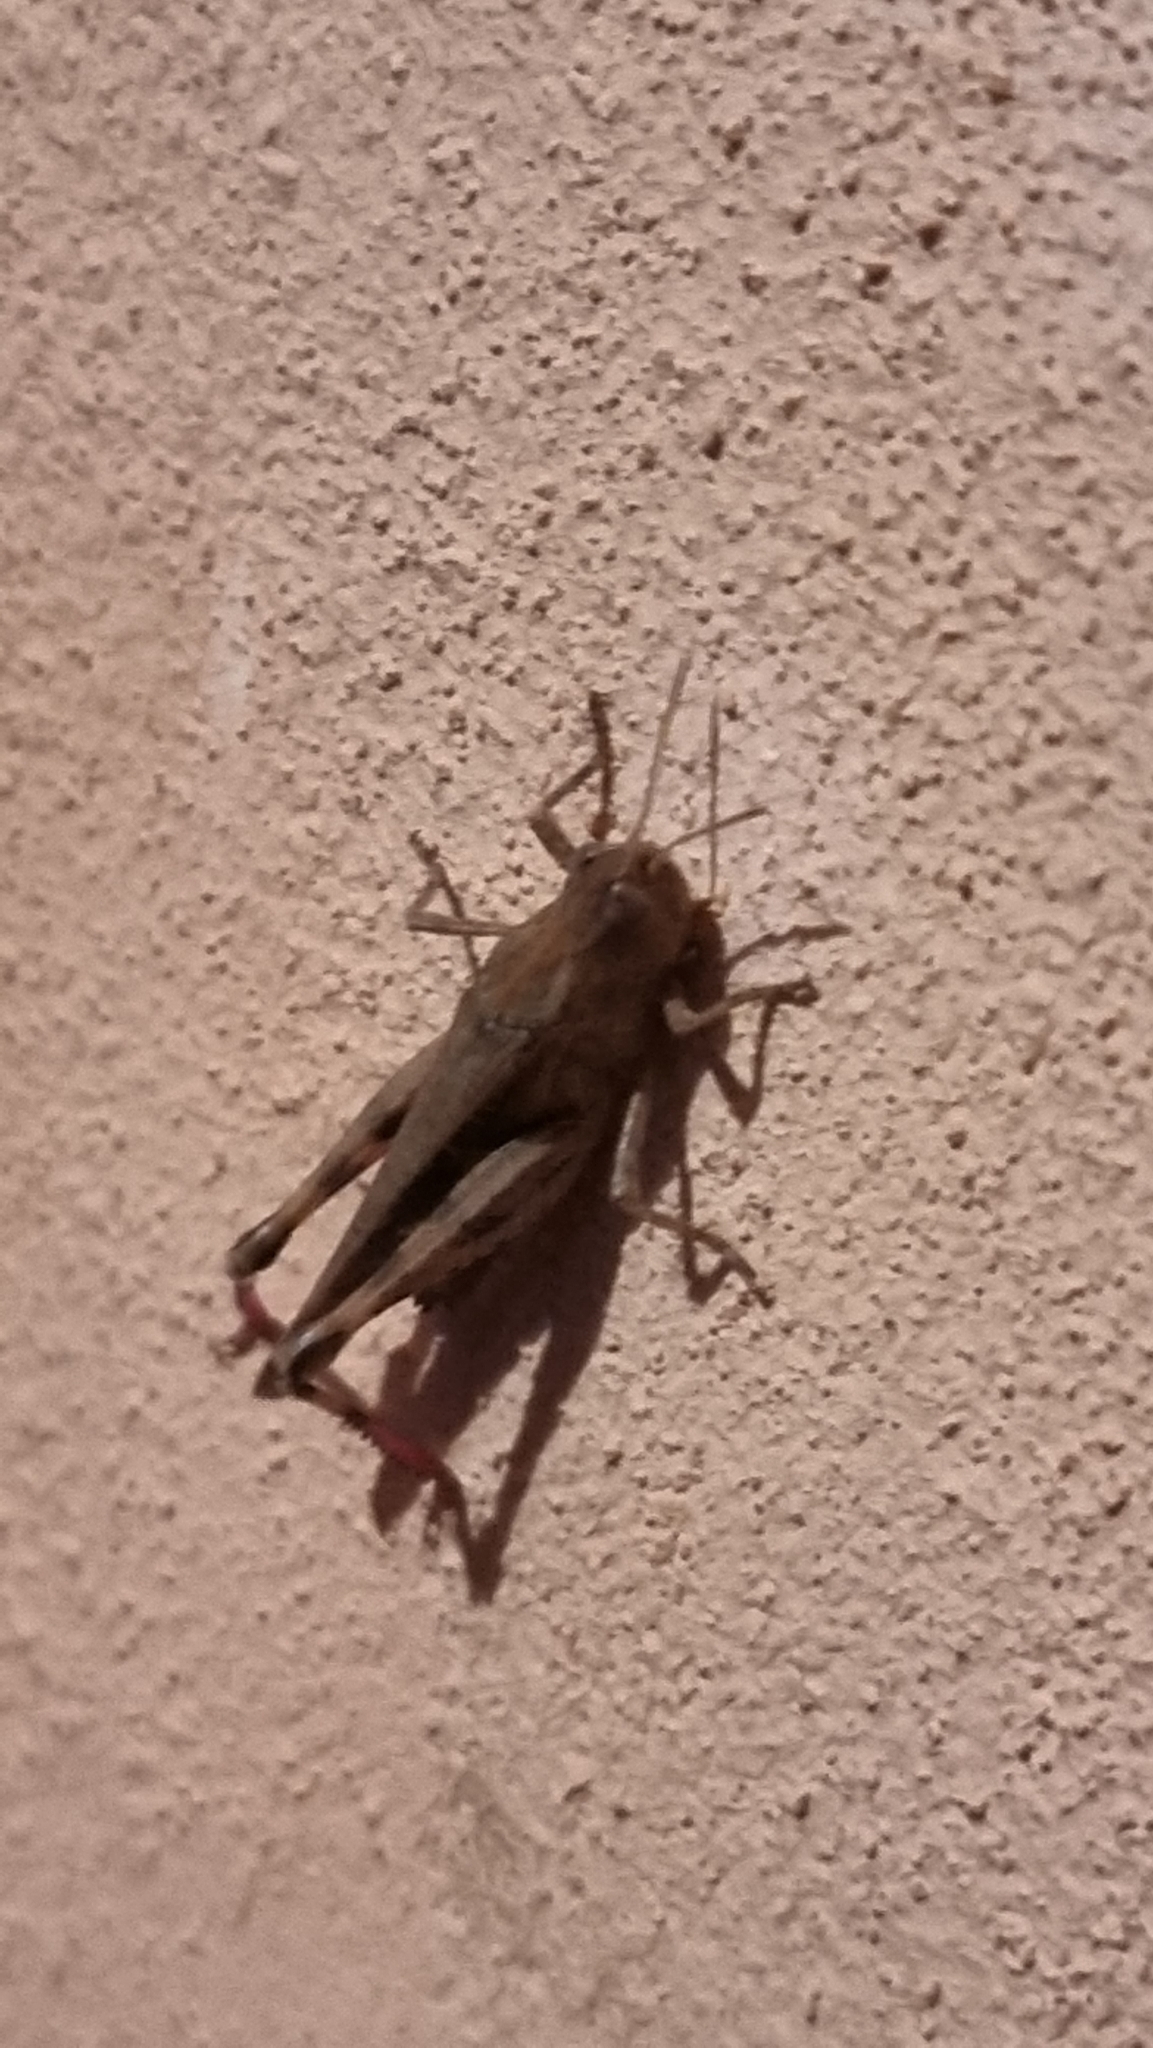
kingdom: Animalia
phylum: Arthropoda
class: Insecta
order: Orthoptera
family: Acrididae
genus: Aiolopus
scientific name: Aiolopus strepens
